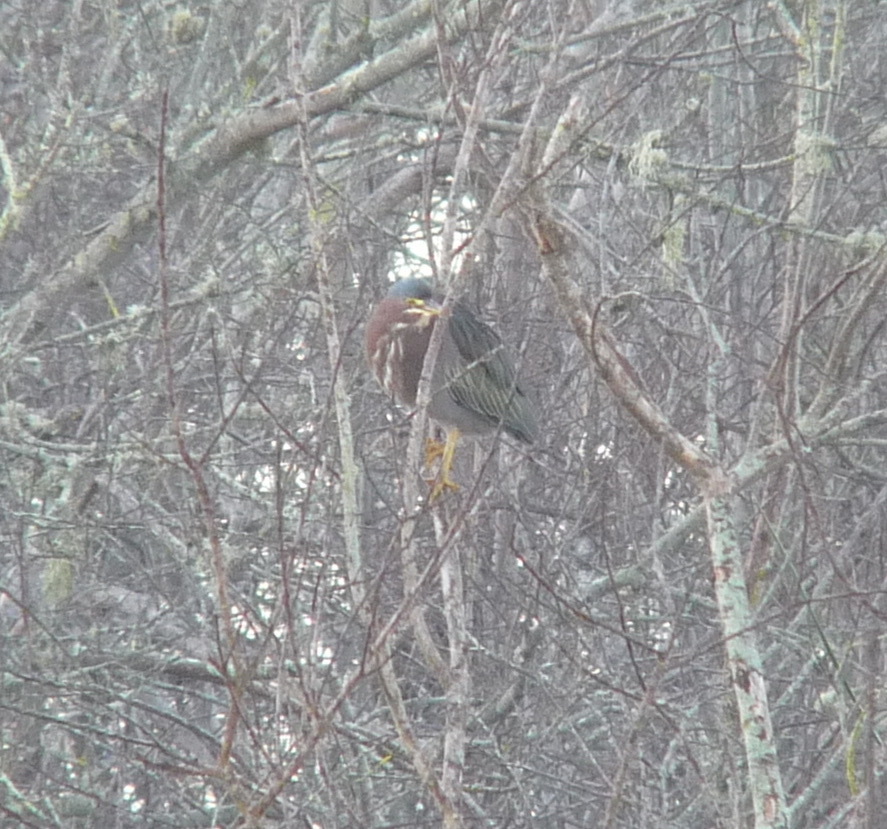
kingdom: Animalia
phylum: Chordata
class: Aves
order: Pelecaniformes
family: Ardeidae
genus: Butorides
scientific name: Butorides virescens
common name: Green heron
